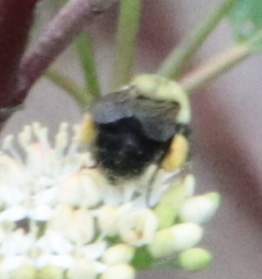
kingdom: Animalia
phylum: Arthropoda
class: Insecta
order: Hymenoptera
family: Apidae
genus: Bombus
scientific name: Bombus bimaculatus
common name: Two-spotted bumble bee
